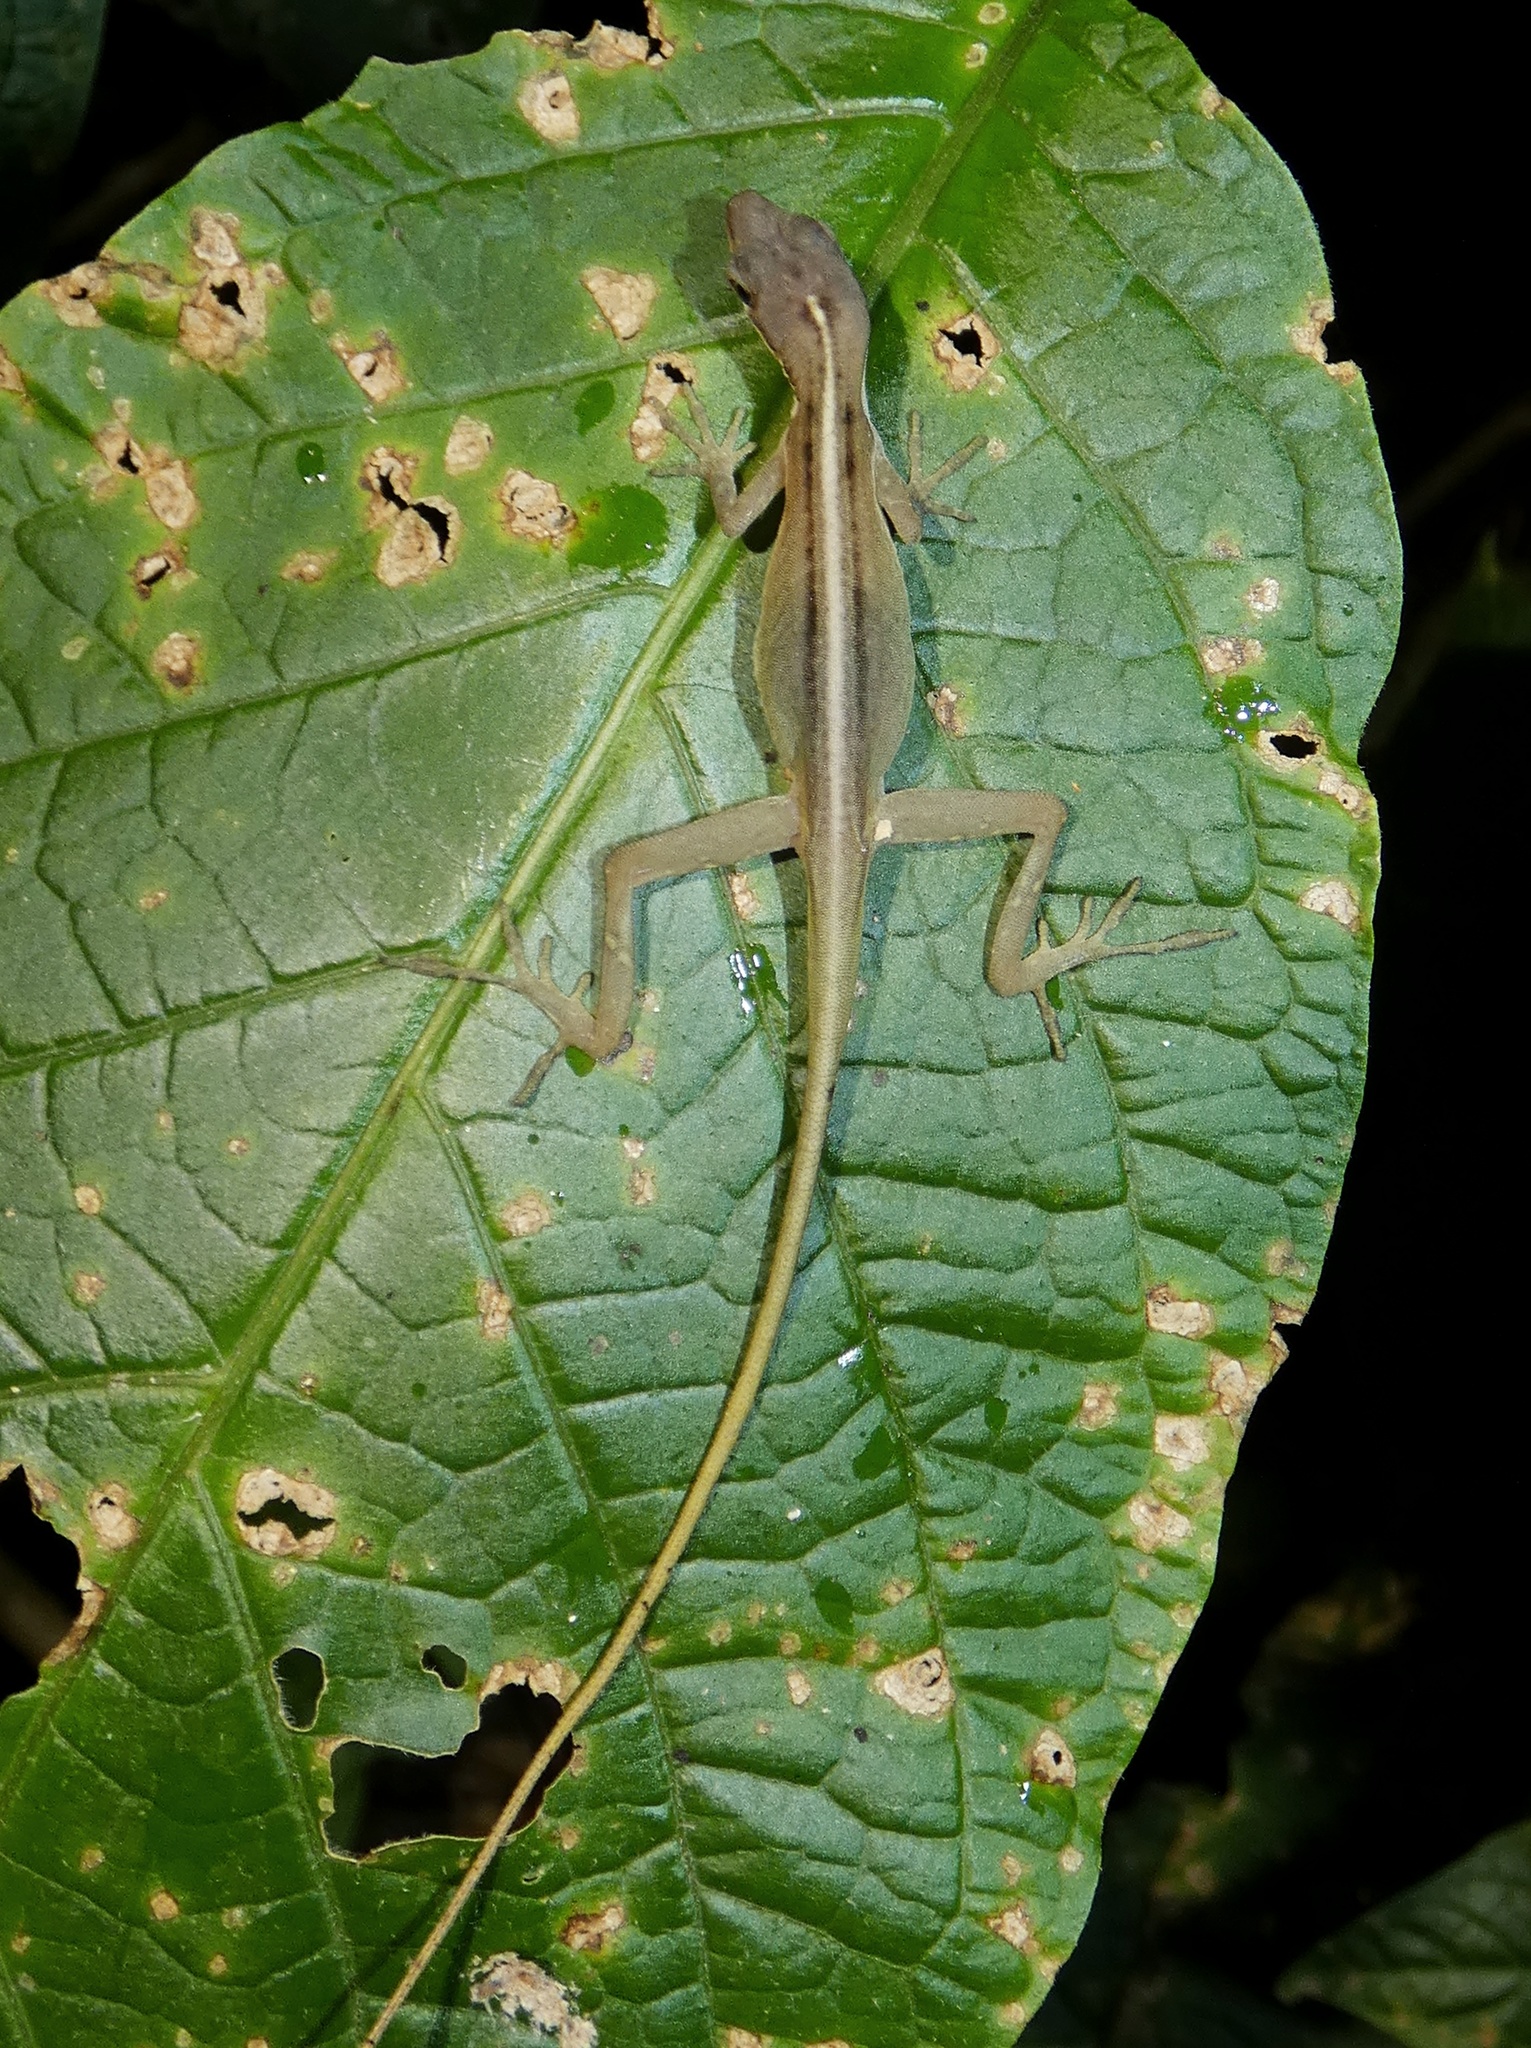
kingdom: Animalia
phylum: Chordata
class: Squamata
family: Dactyloidae
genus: Anolis
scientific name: Anolis auratus
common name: Grass anole
